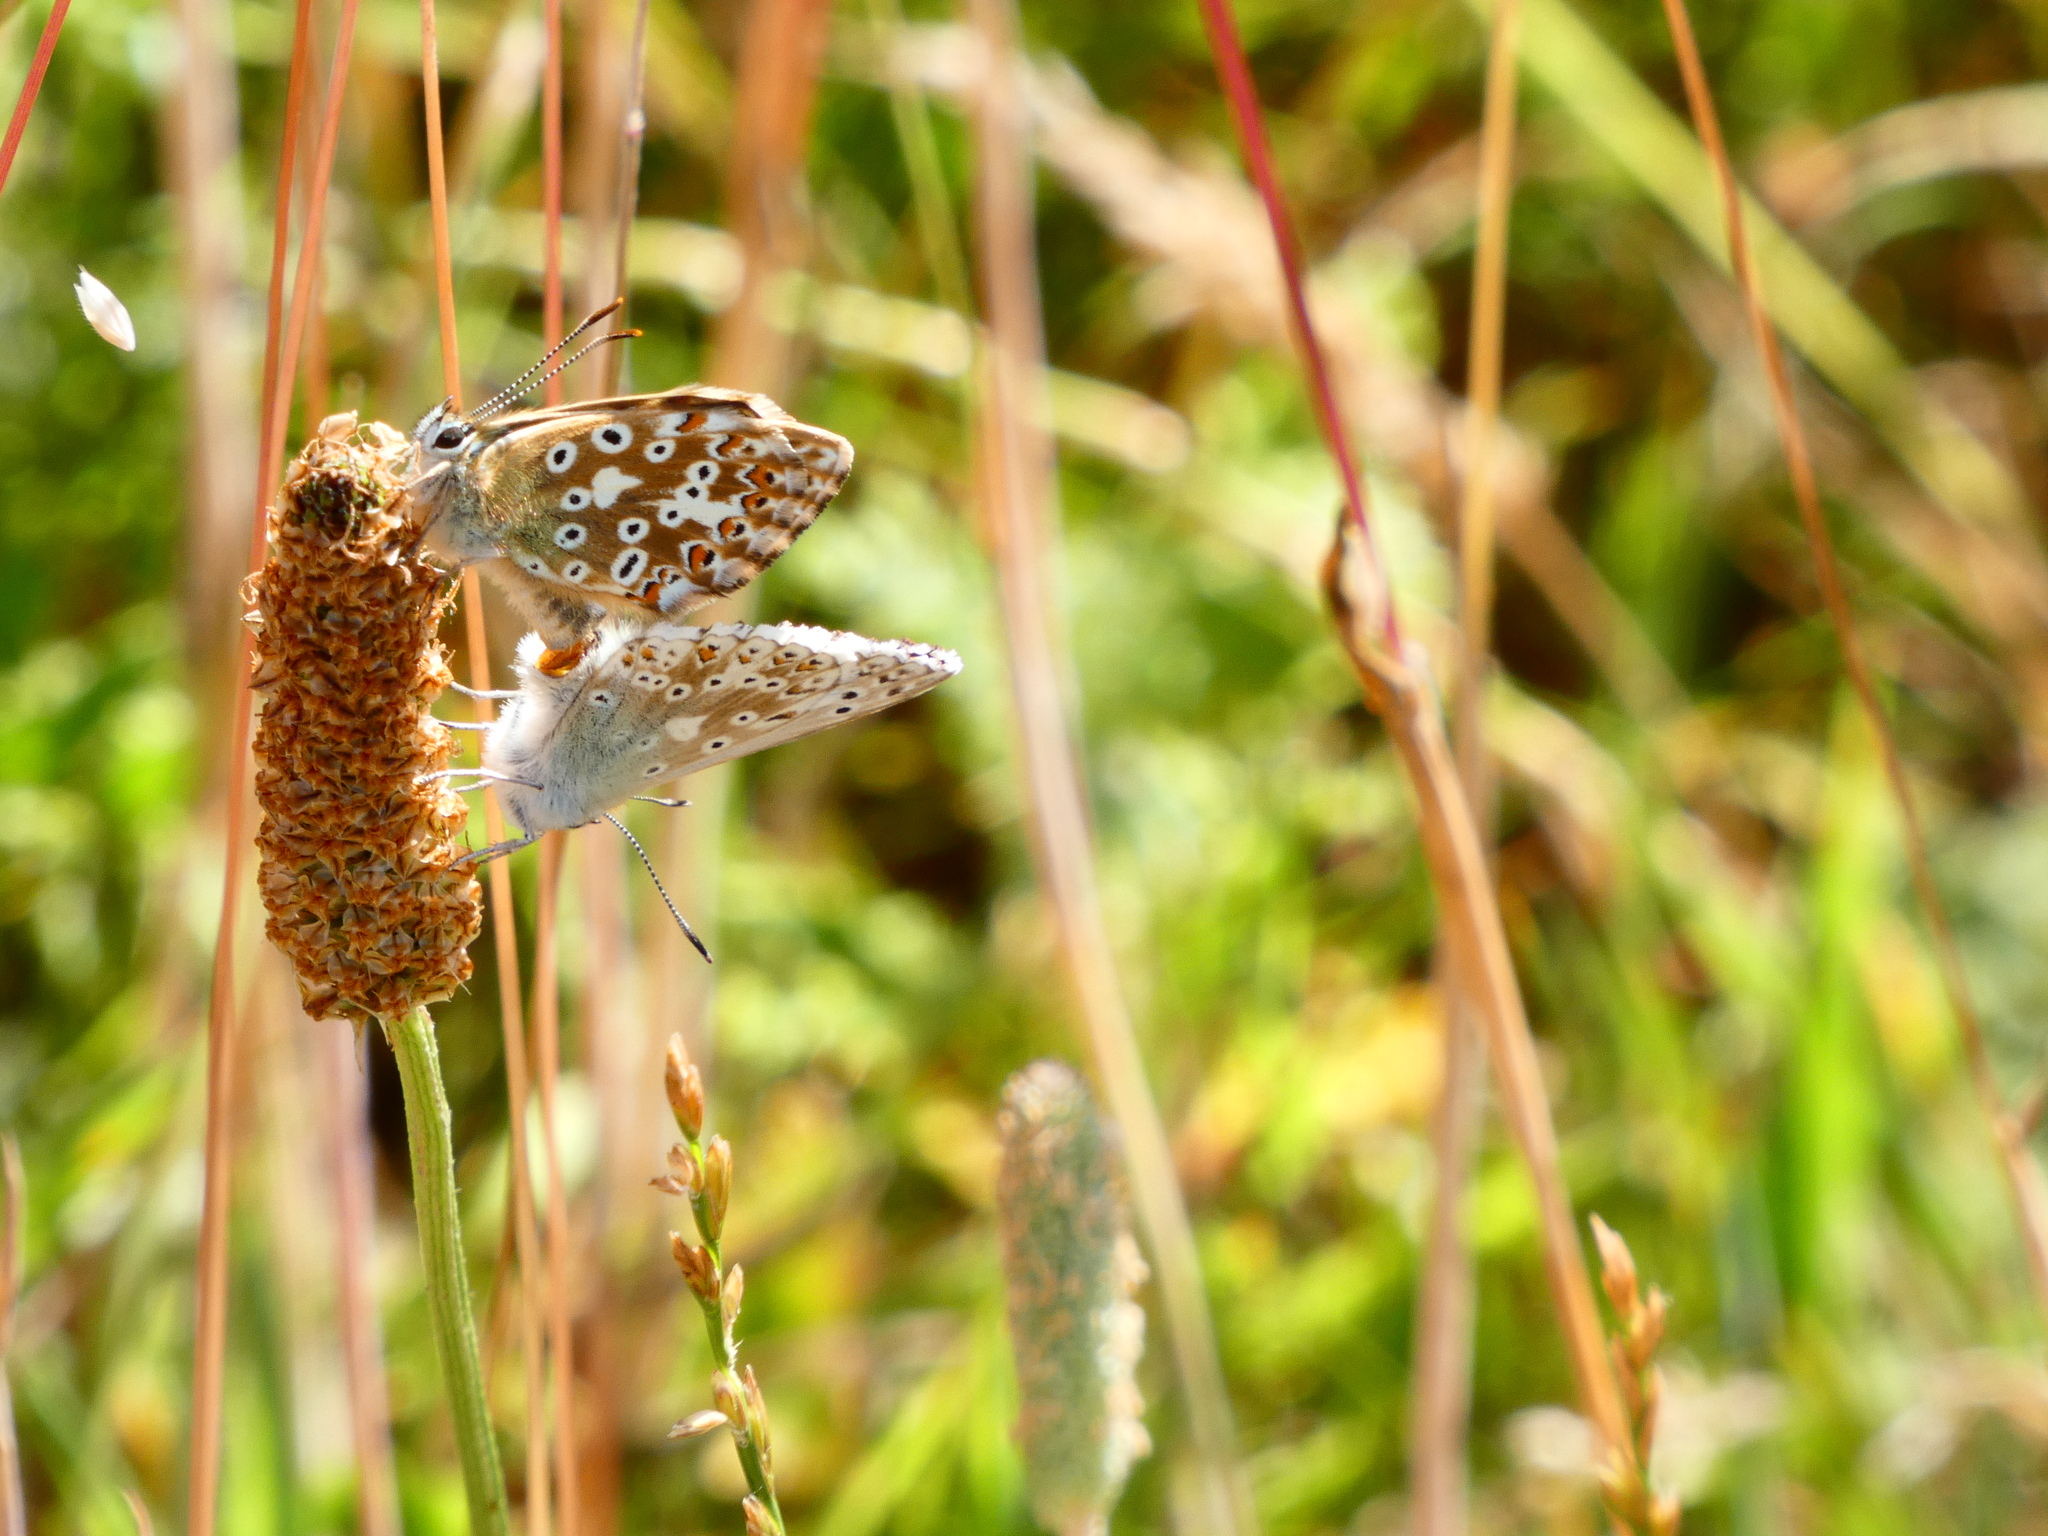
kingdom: Animalia
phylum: Arthropoda
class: Insecta
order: Lepidoptera
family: Lycaenidae
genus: Lysandra
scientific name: Lysandra coridon
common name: Chalkhill blue
